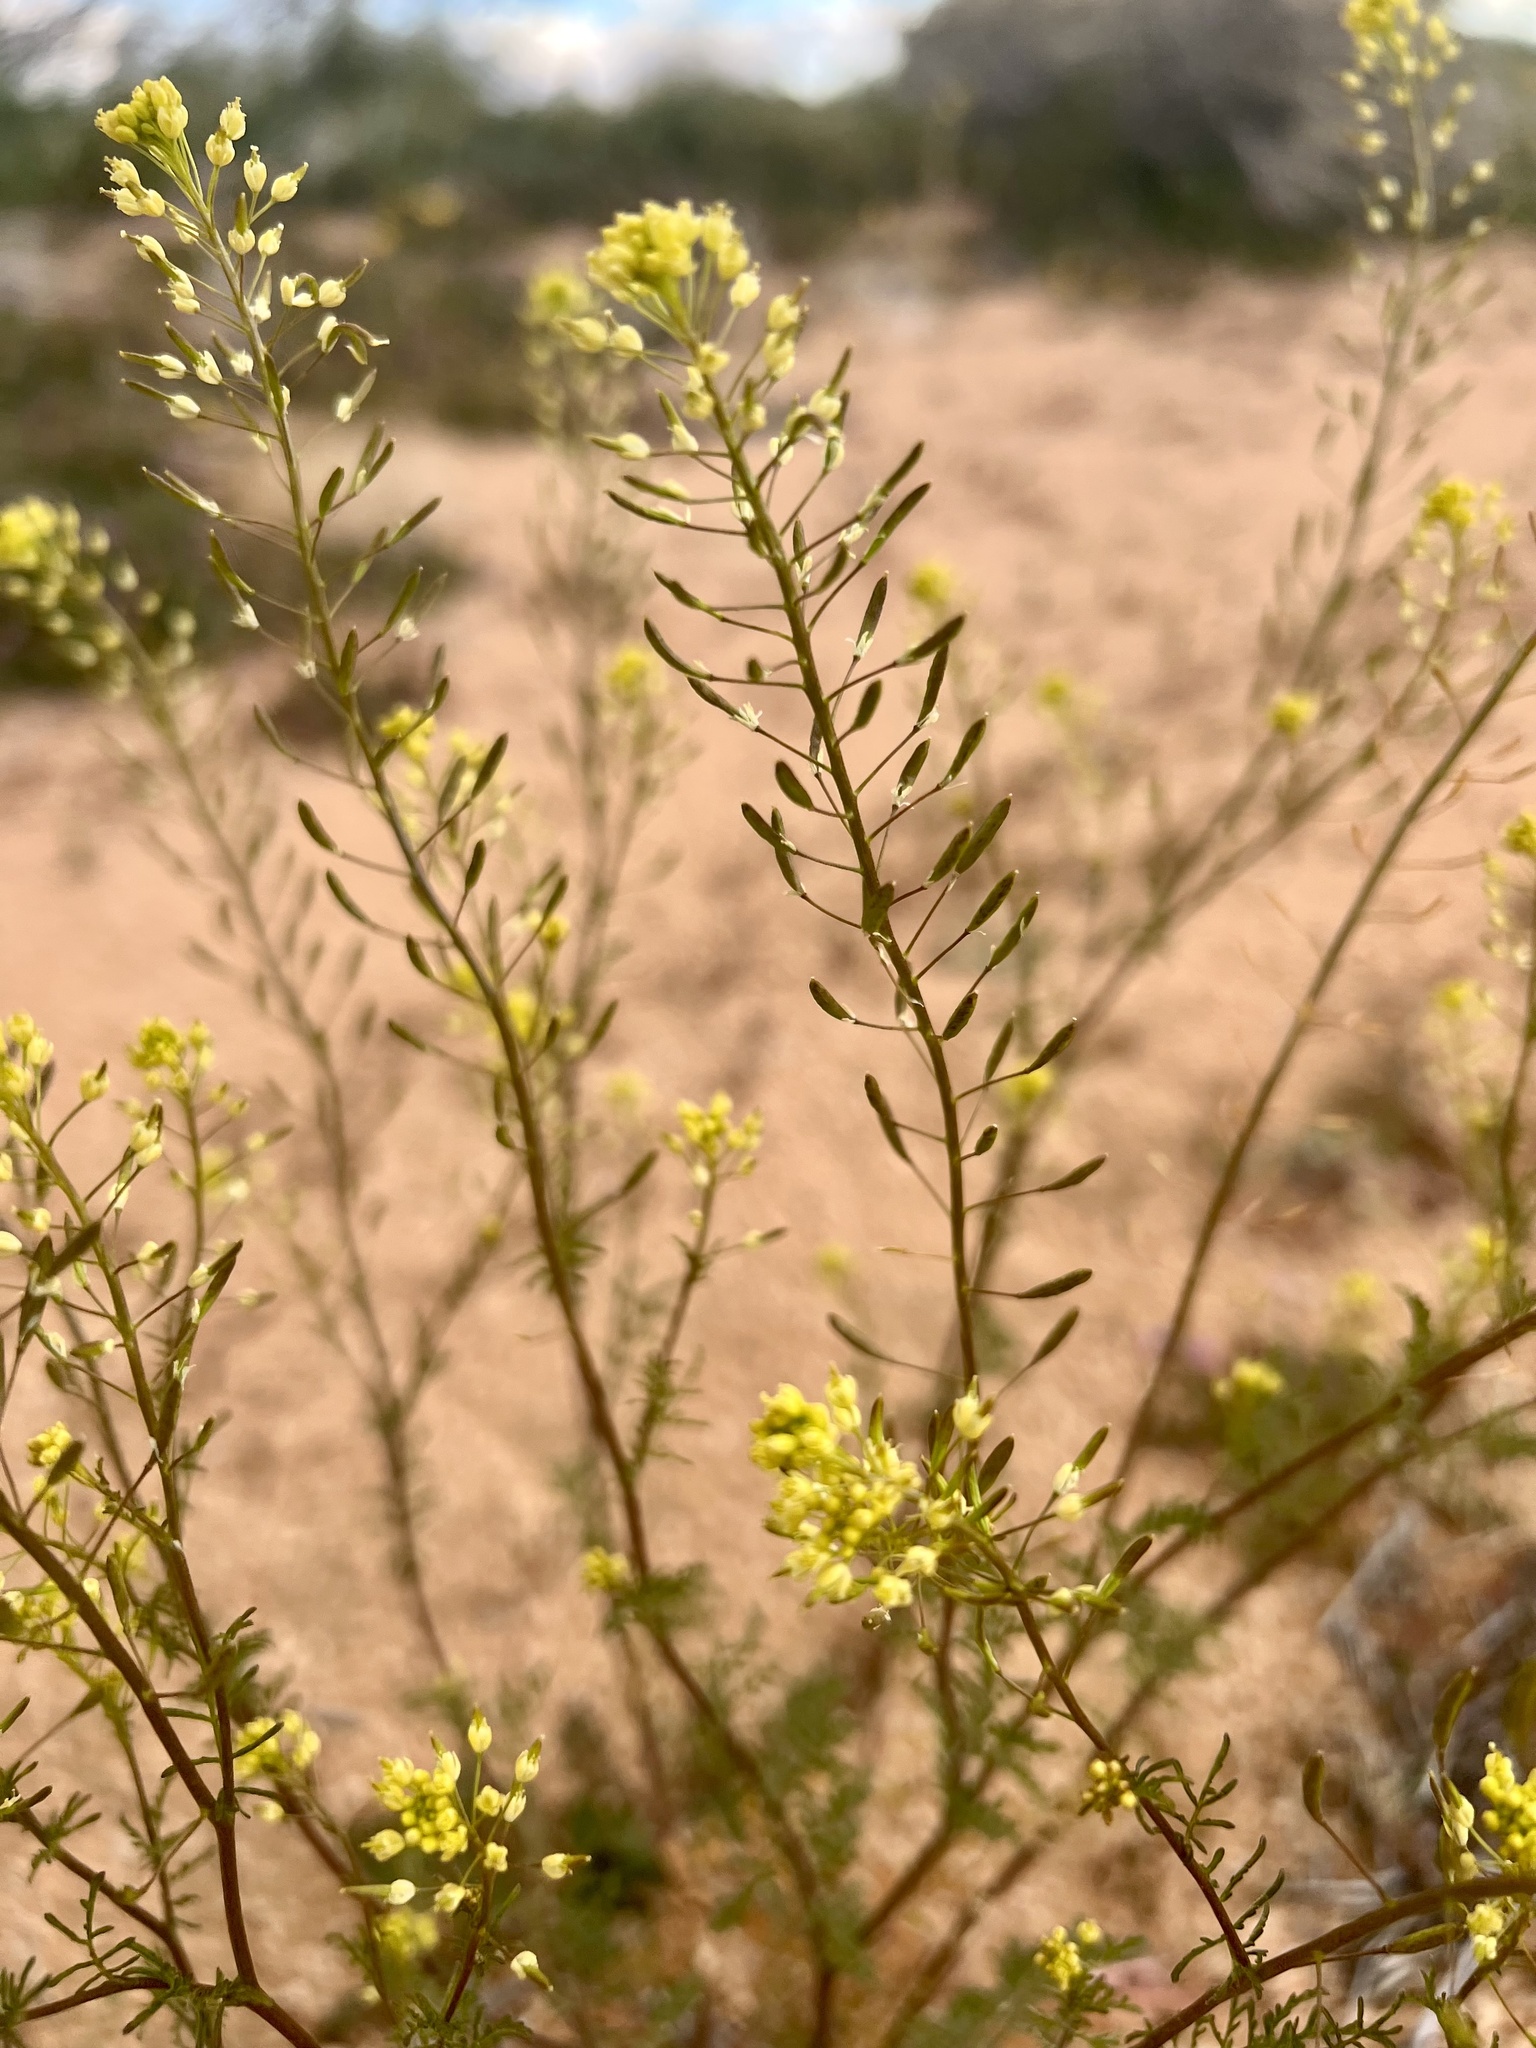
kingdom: Plantae
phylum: Tracheophyta
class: Magnoliopsida
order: Brassicales
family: Brassicaceae
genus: Descurainia
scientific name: Descurainia pinnata
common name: Western tansy mustard
